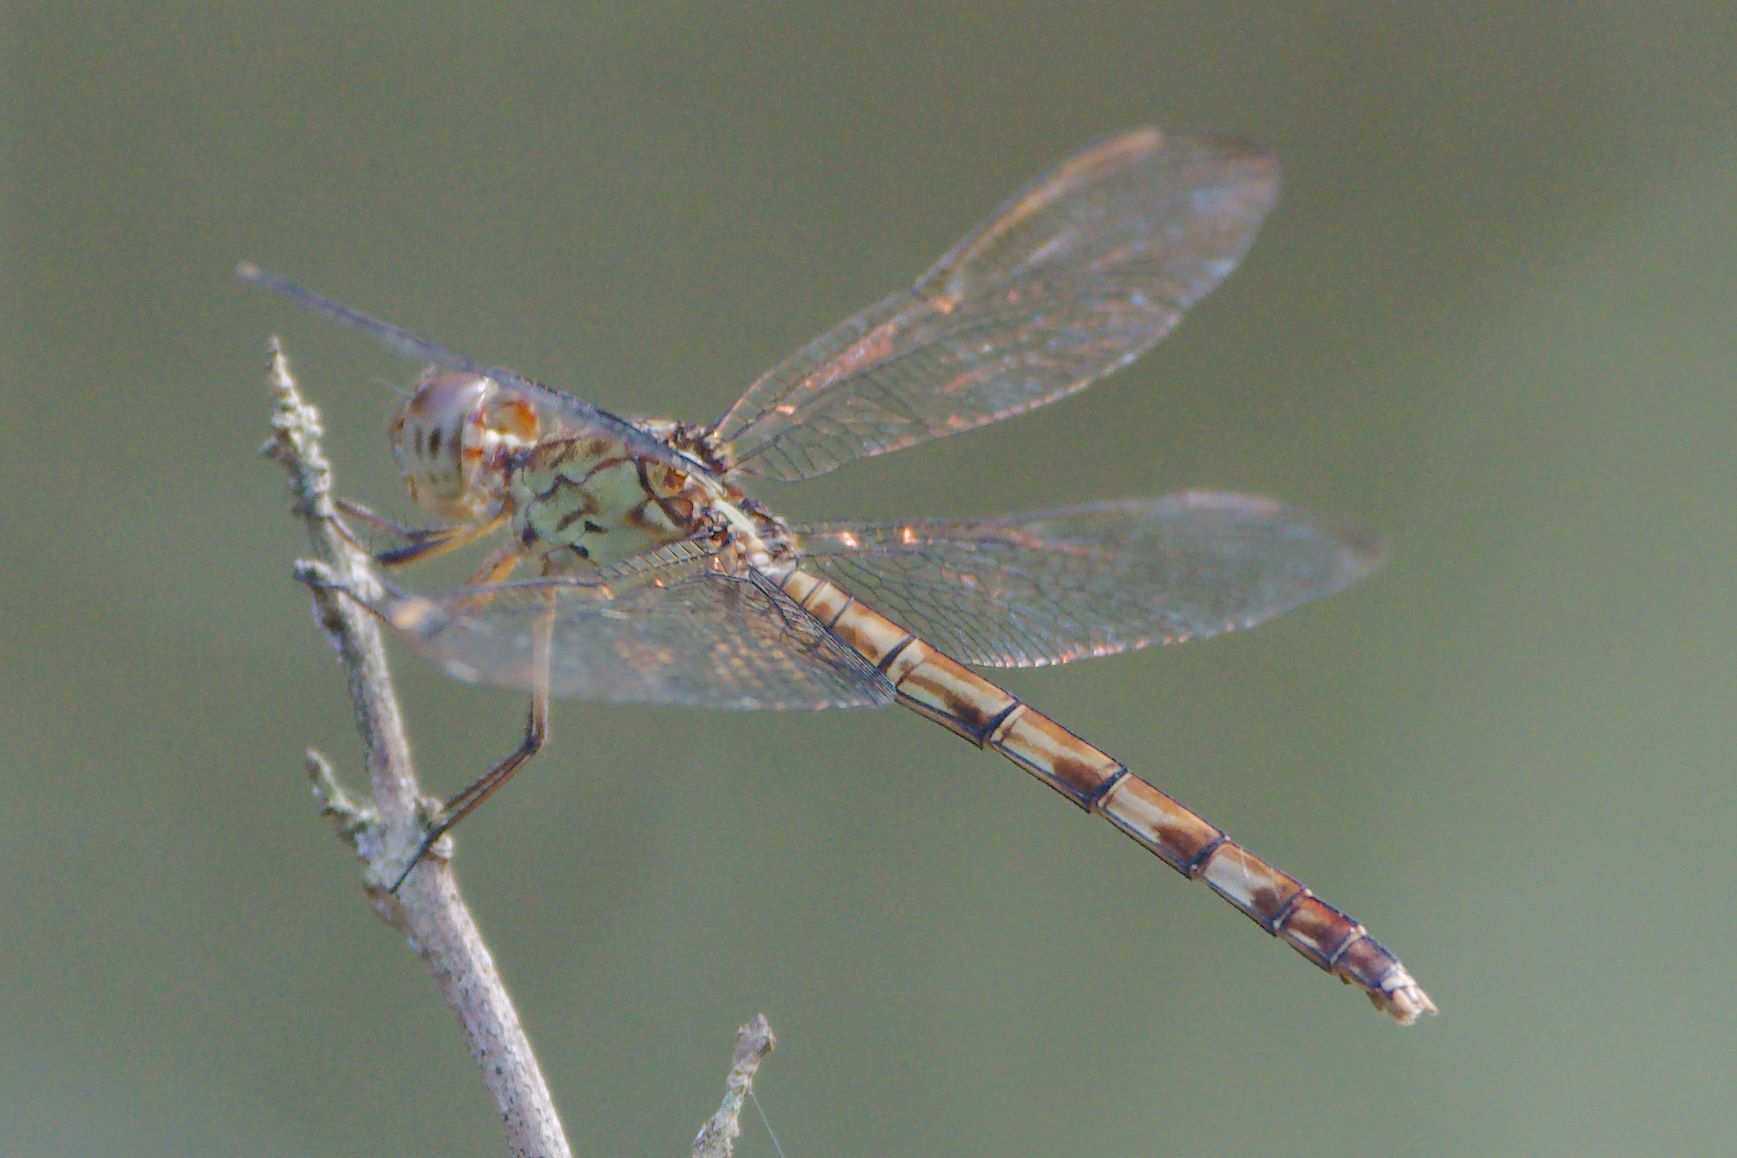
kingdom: Animalia
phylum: Arthropoda
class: Insecta
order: Odonata
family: Libellulidae
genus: Erythrodiplax
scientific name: Erythrodiplax umbrata
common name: Band-winged dragonlet
